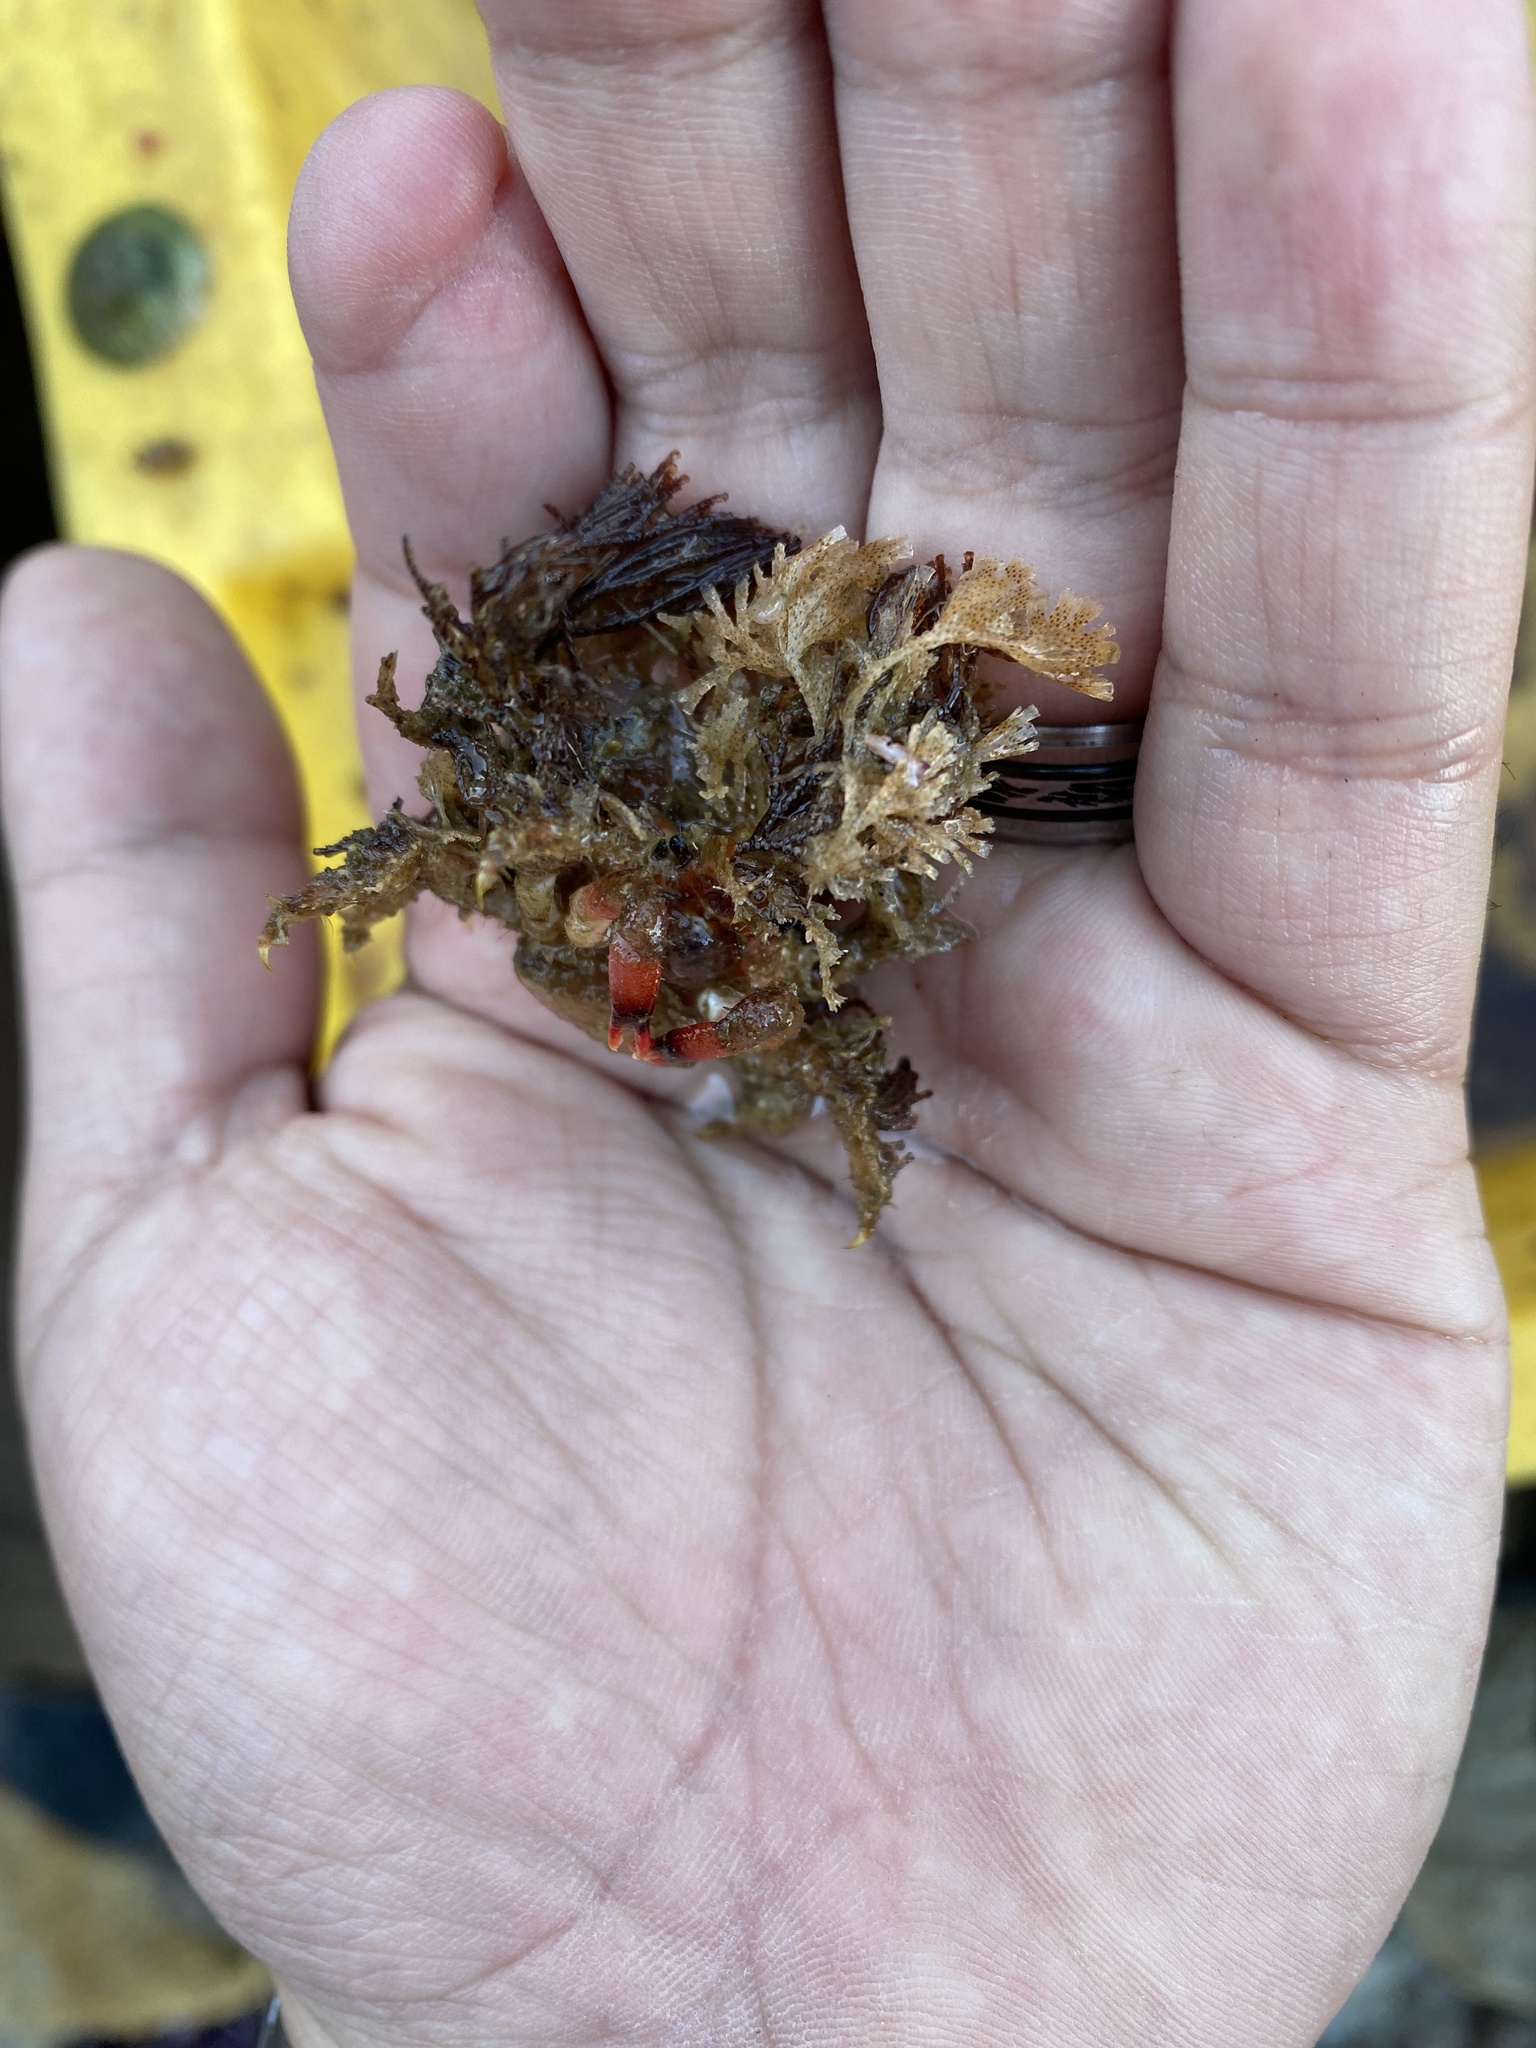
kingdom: Animalia
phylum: Arthropoda
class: Malacostraca
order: Decapoda
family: Epialtidae
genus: Pisoides
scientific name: Pisoides edwardsii
